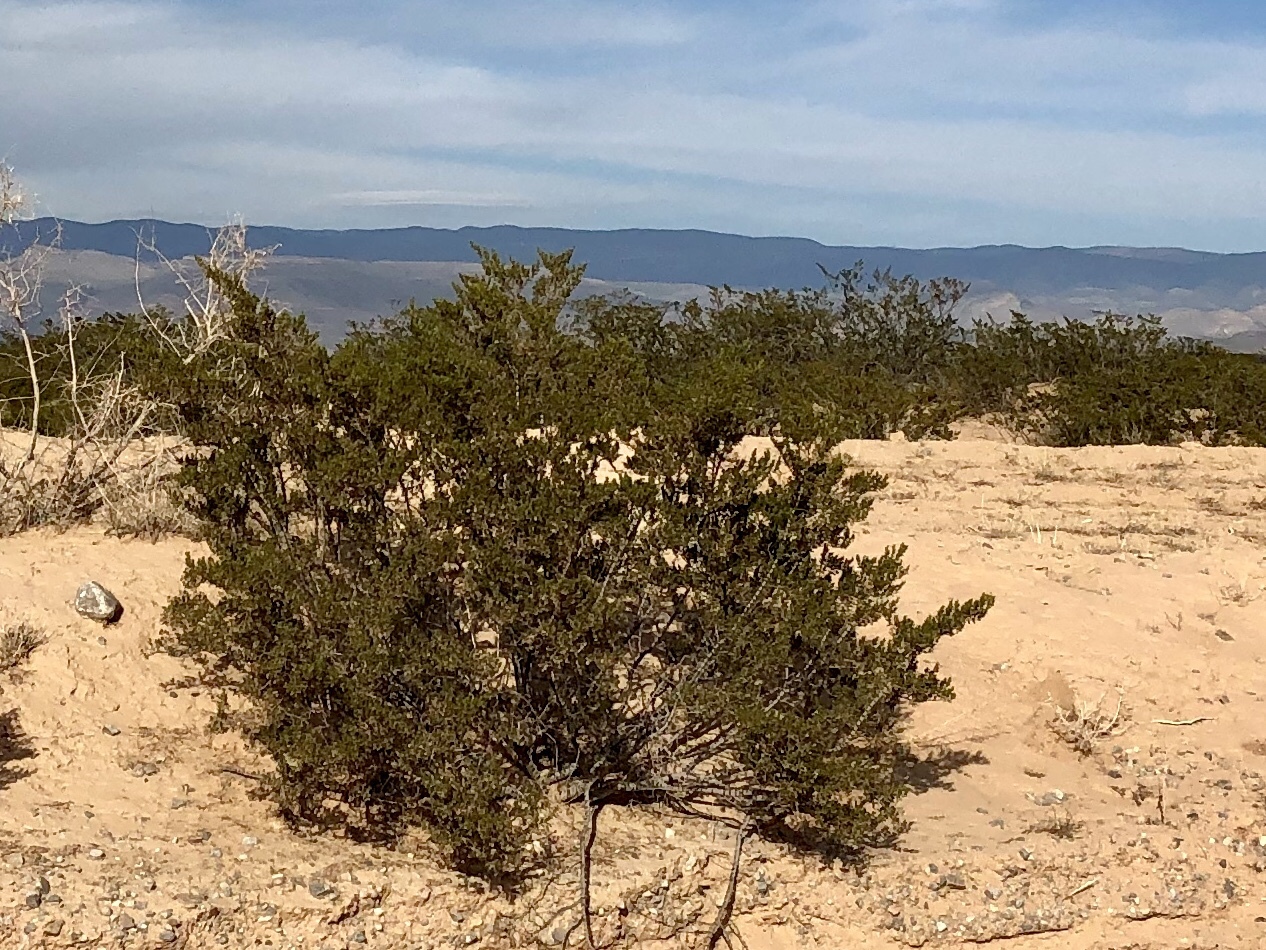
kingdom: Plantae
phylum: Tracheophyta
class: Magnoliopsida
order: Zygophyllales
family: Zygophyllaceae
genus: Larrea
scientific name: Larrea tridentata
